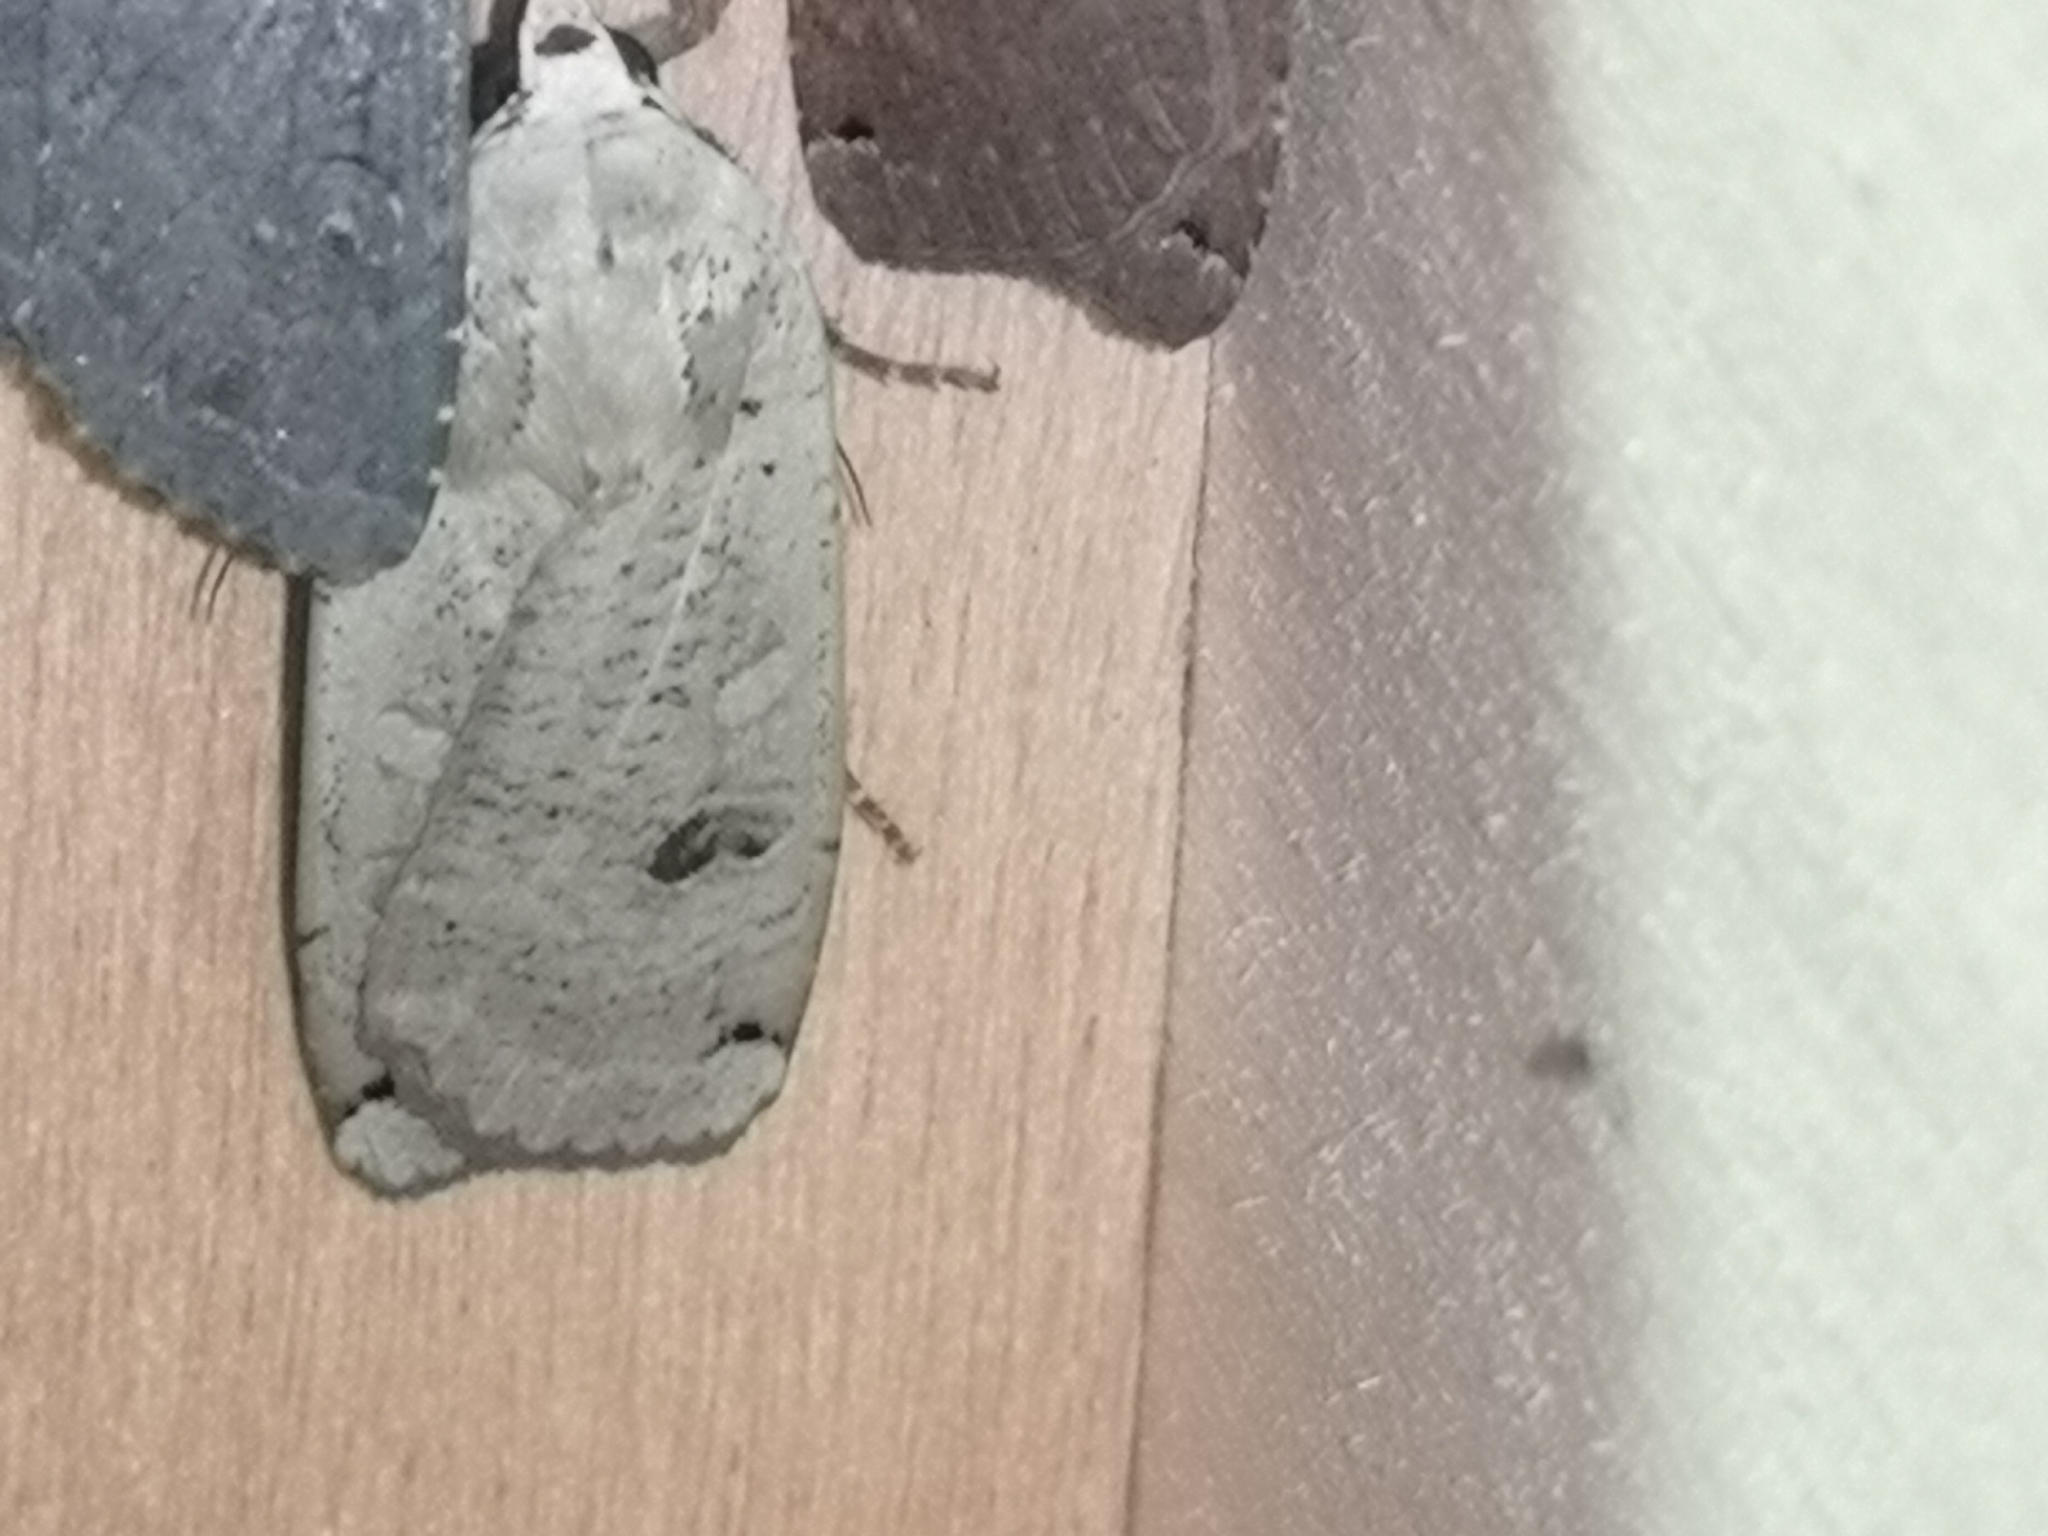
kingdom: Animalia
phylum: Arthropoda
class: Insecta
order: Lepidoptera
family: Noctuidae
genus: Noctua
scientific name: Noctua pronuba
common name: Large yellow underwing
